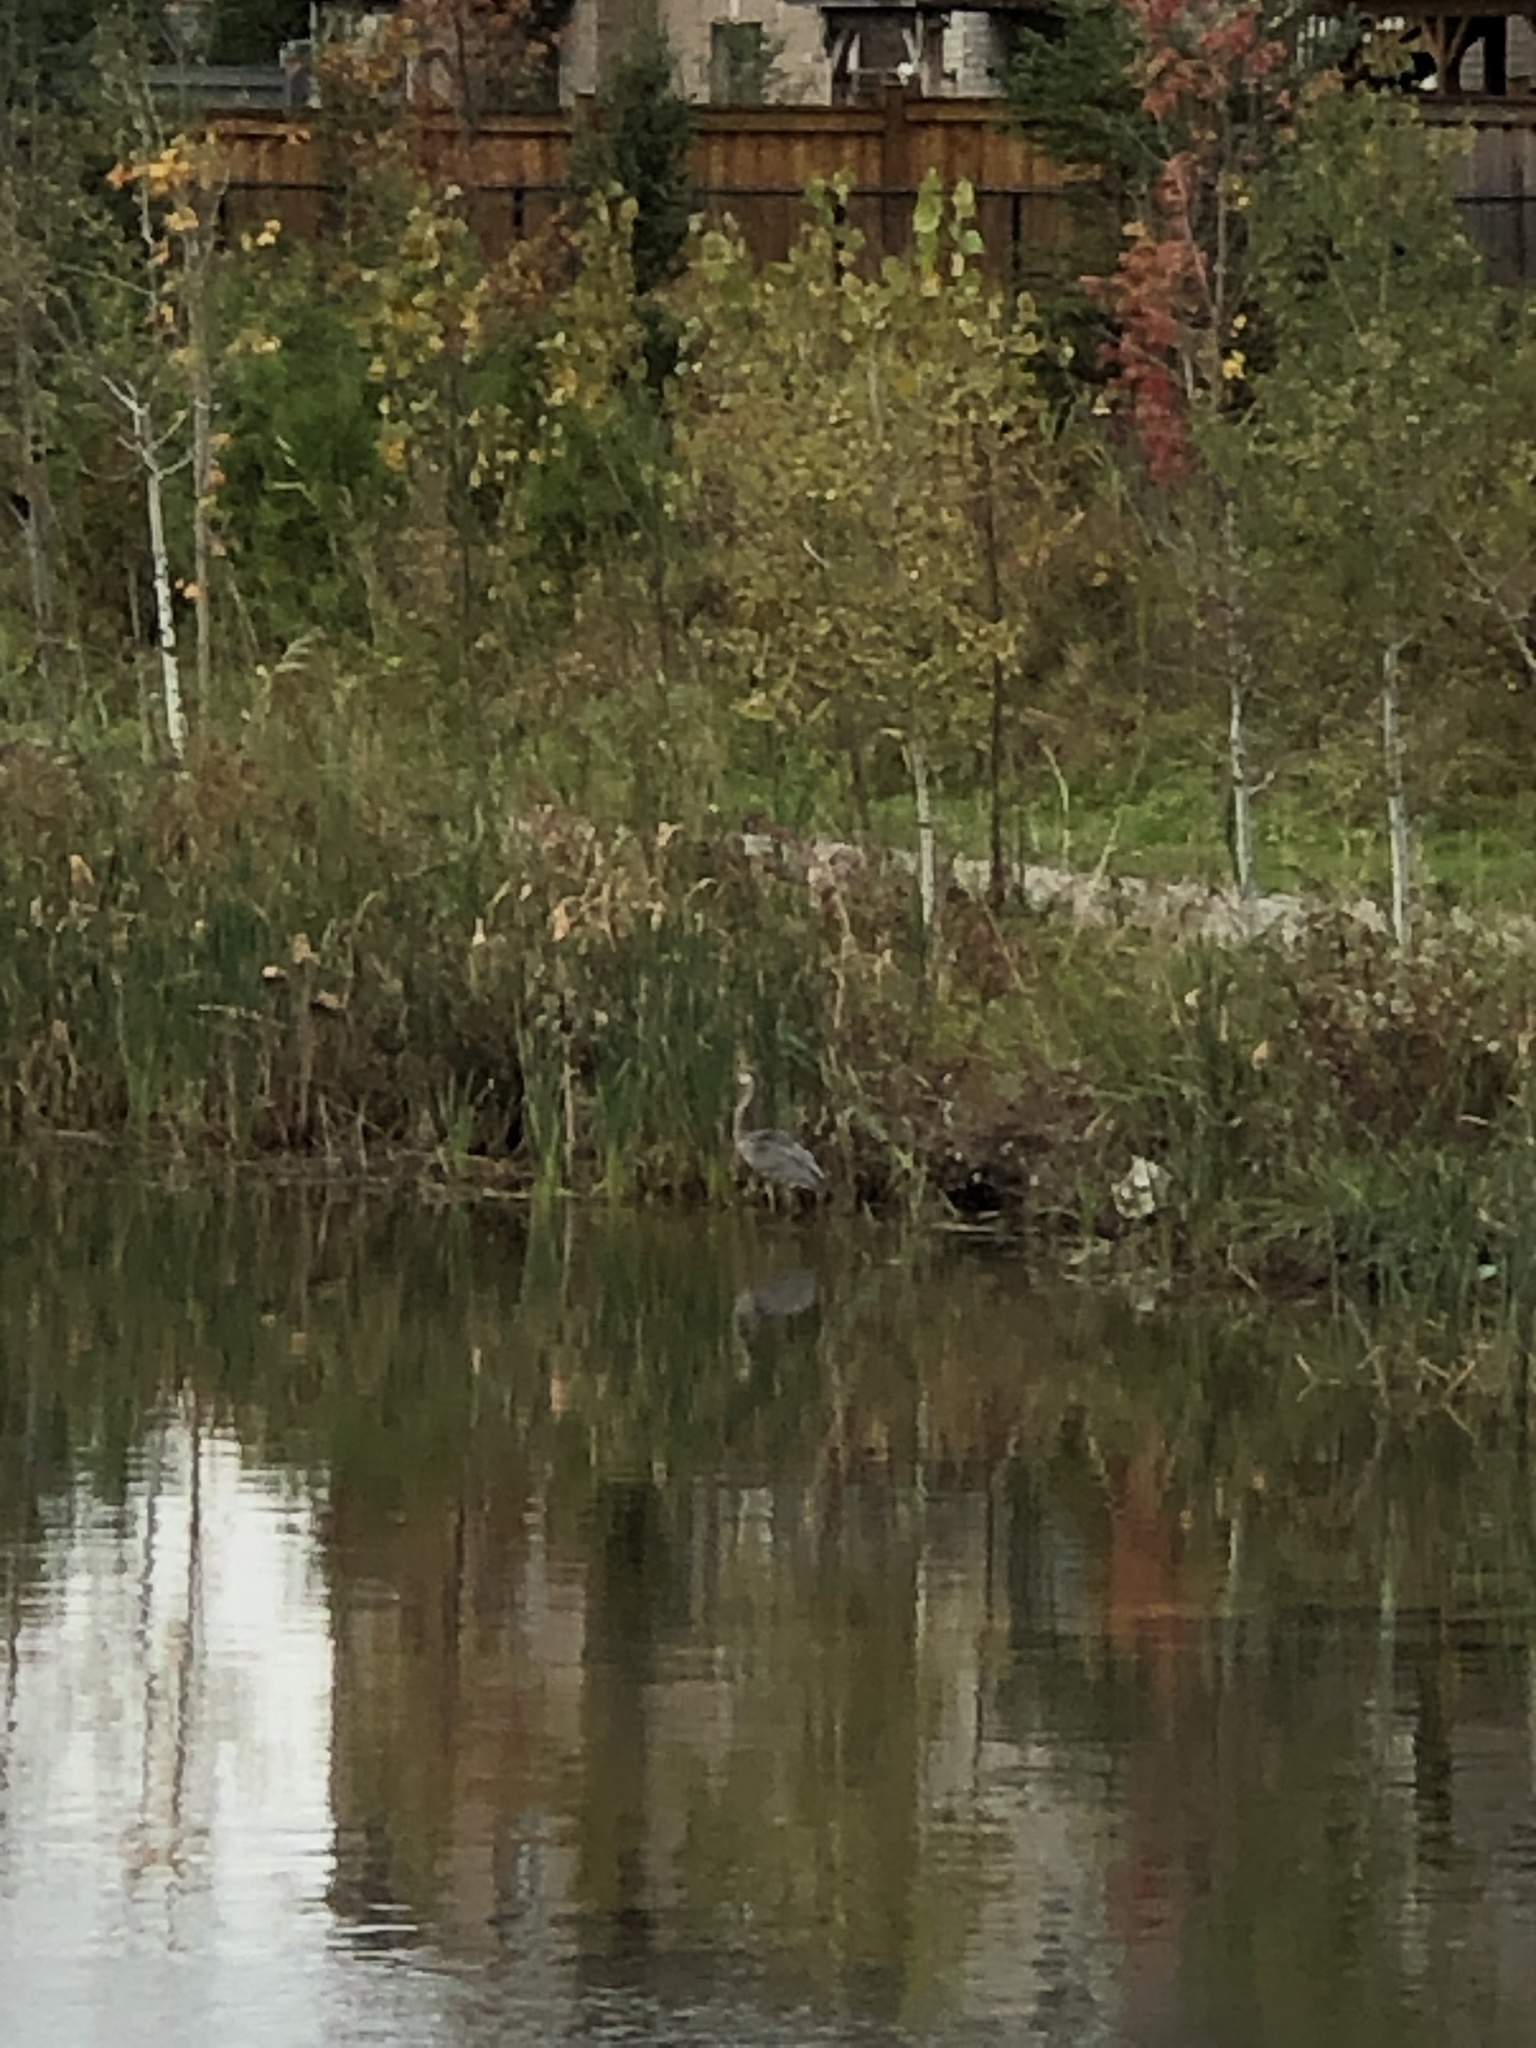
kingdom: Animalia
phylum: Chordata
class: Aves
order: Pelecaniformes
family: Ardeidae
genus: Ardea
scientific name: Ardea herodias
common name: Great blue heron
